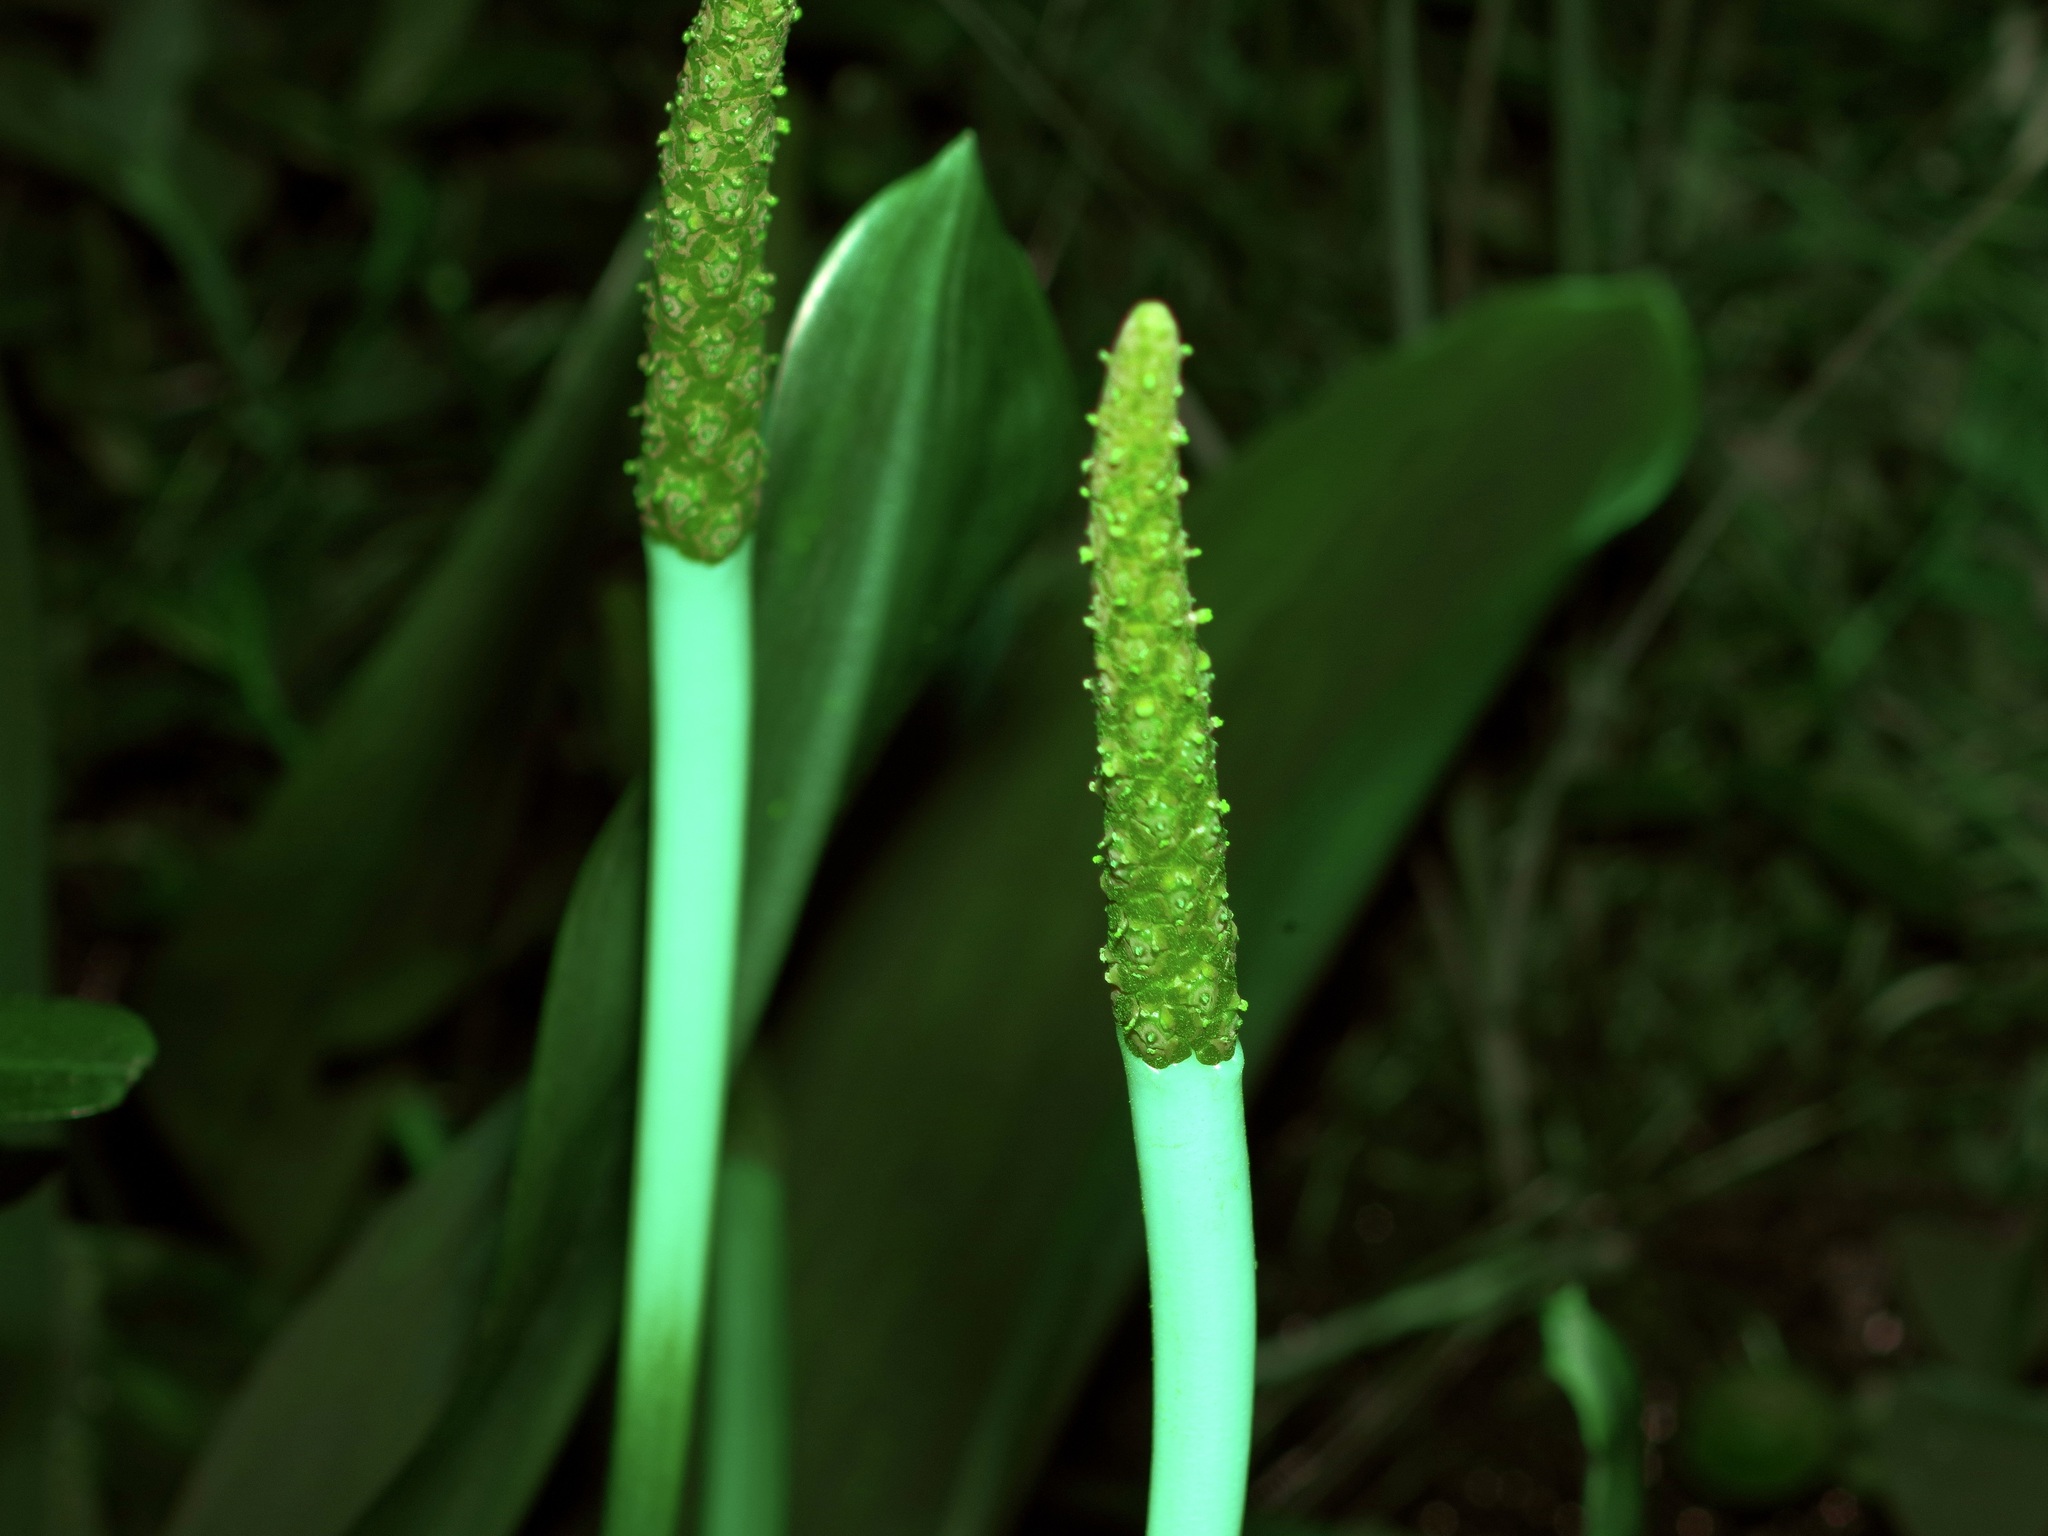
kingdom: Plantae
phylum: Tracheophyta
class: Liliopsida
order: Alismatales
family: Araceae
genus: Orontium
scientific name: Orontium aquaticum
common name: Golden-club
